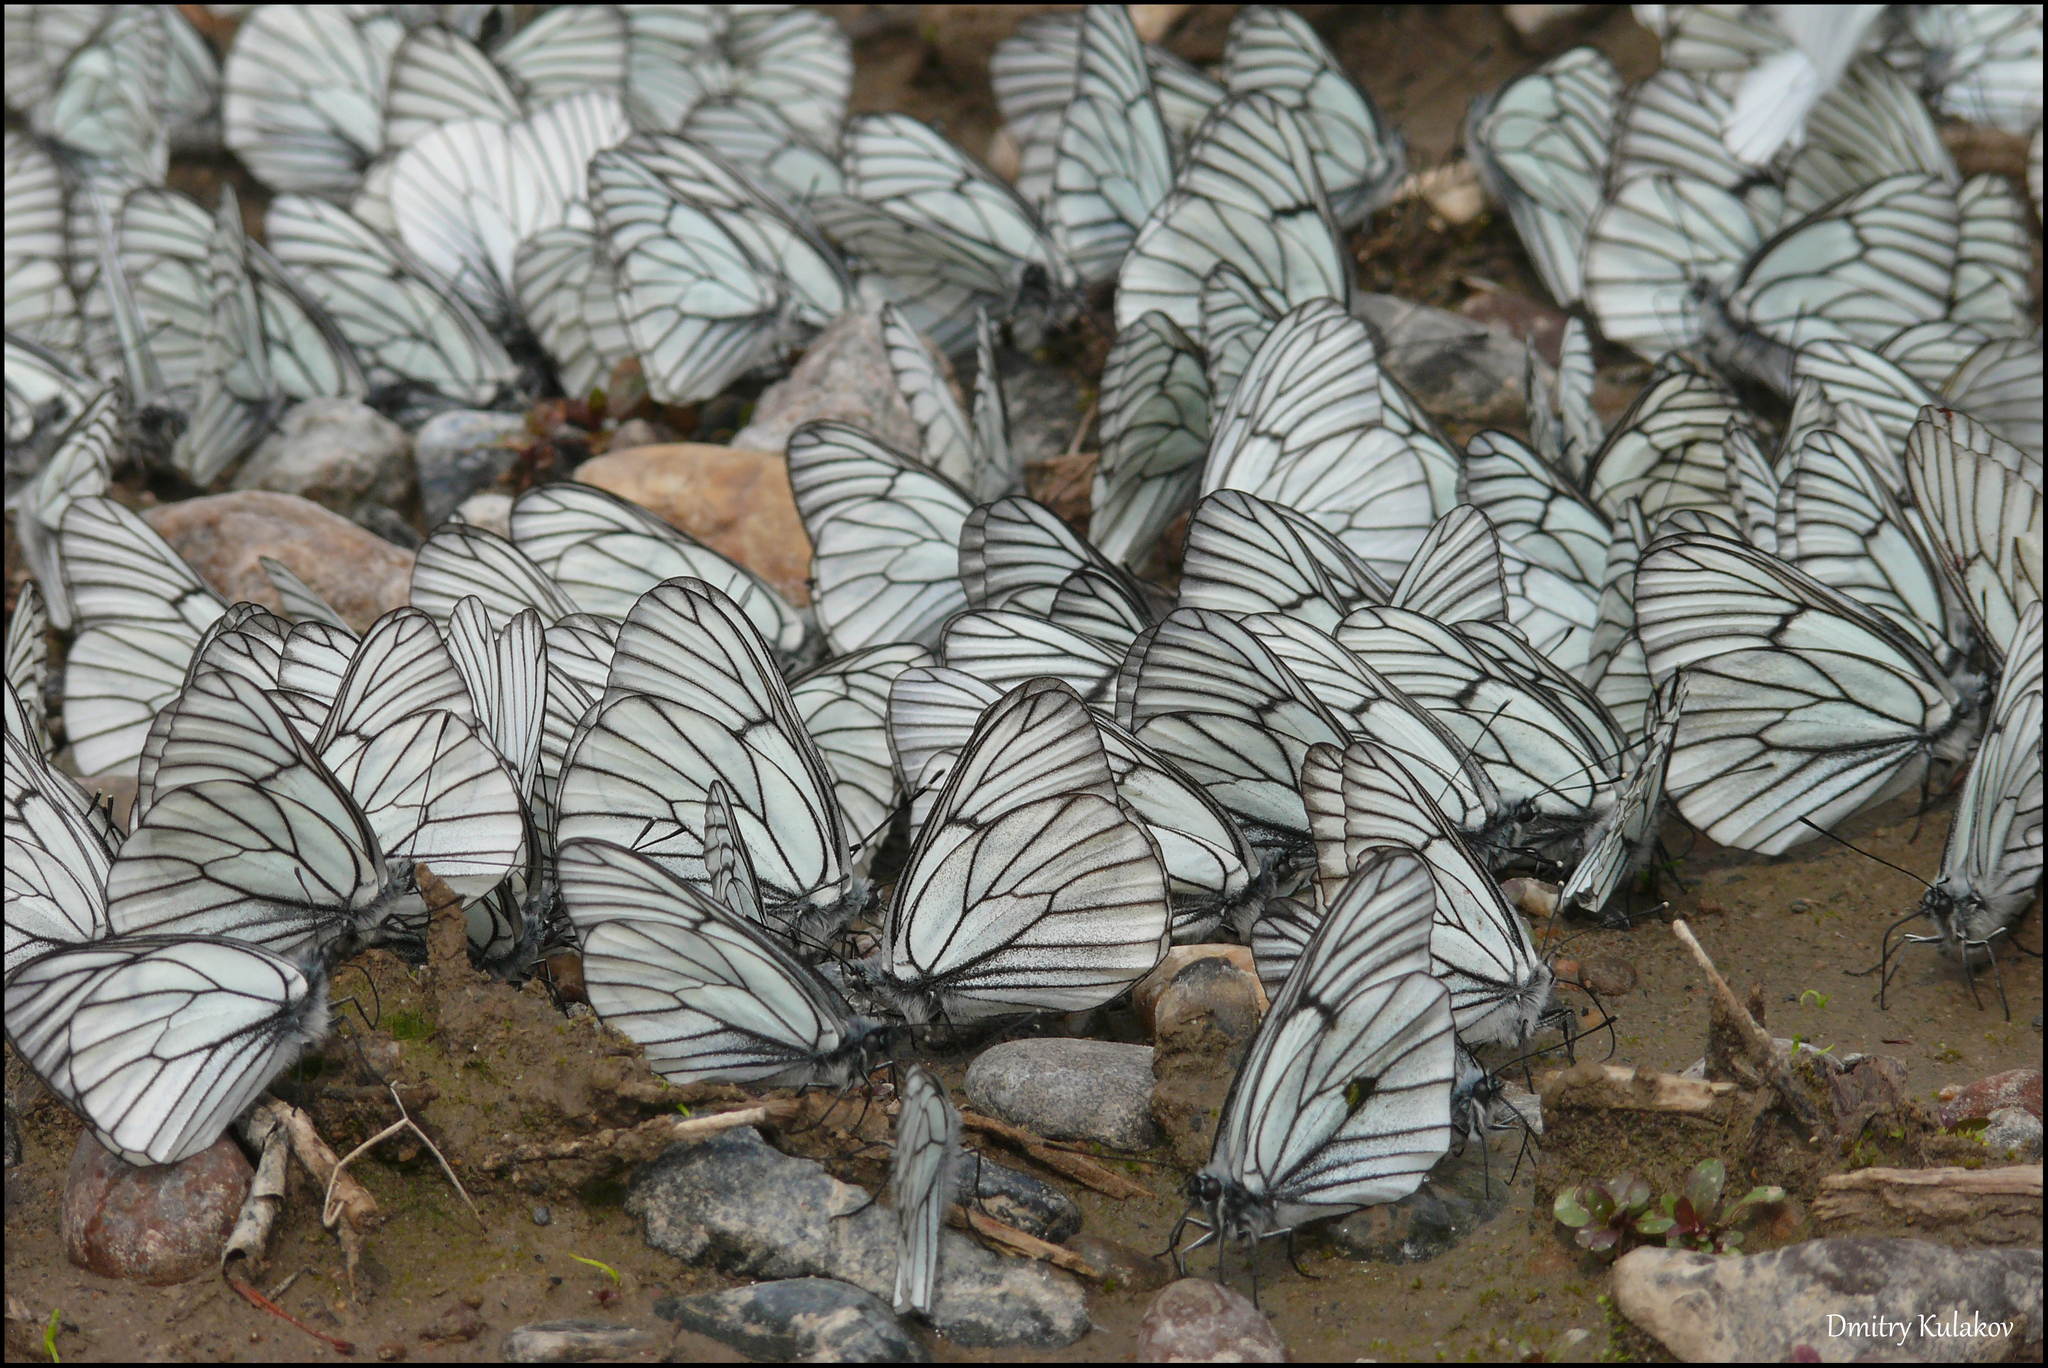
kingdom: Animalia
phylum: Arthropoda
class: Insecta
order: Lepidoptera
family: Pieridae
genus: Aporia
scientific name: Aporia crataegi
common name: Black-veined white
